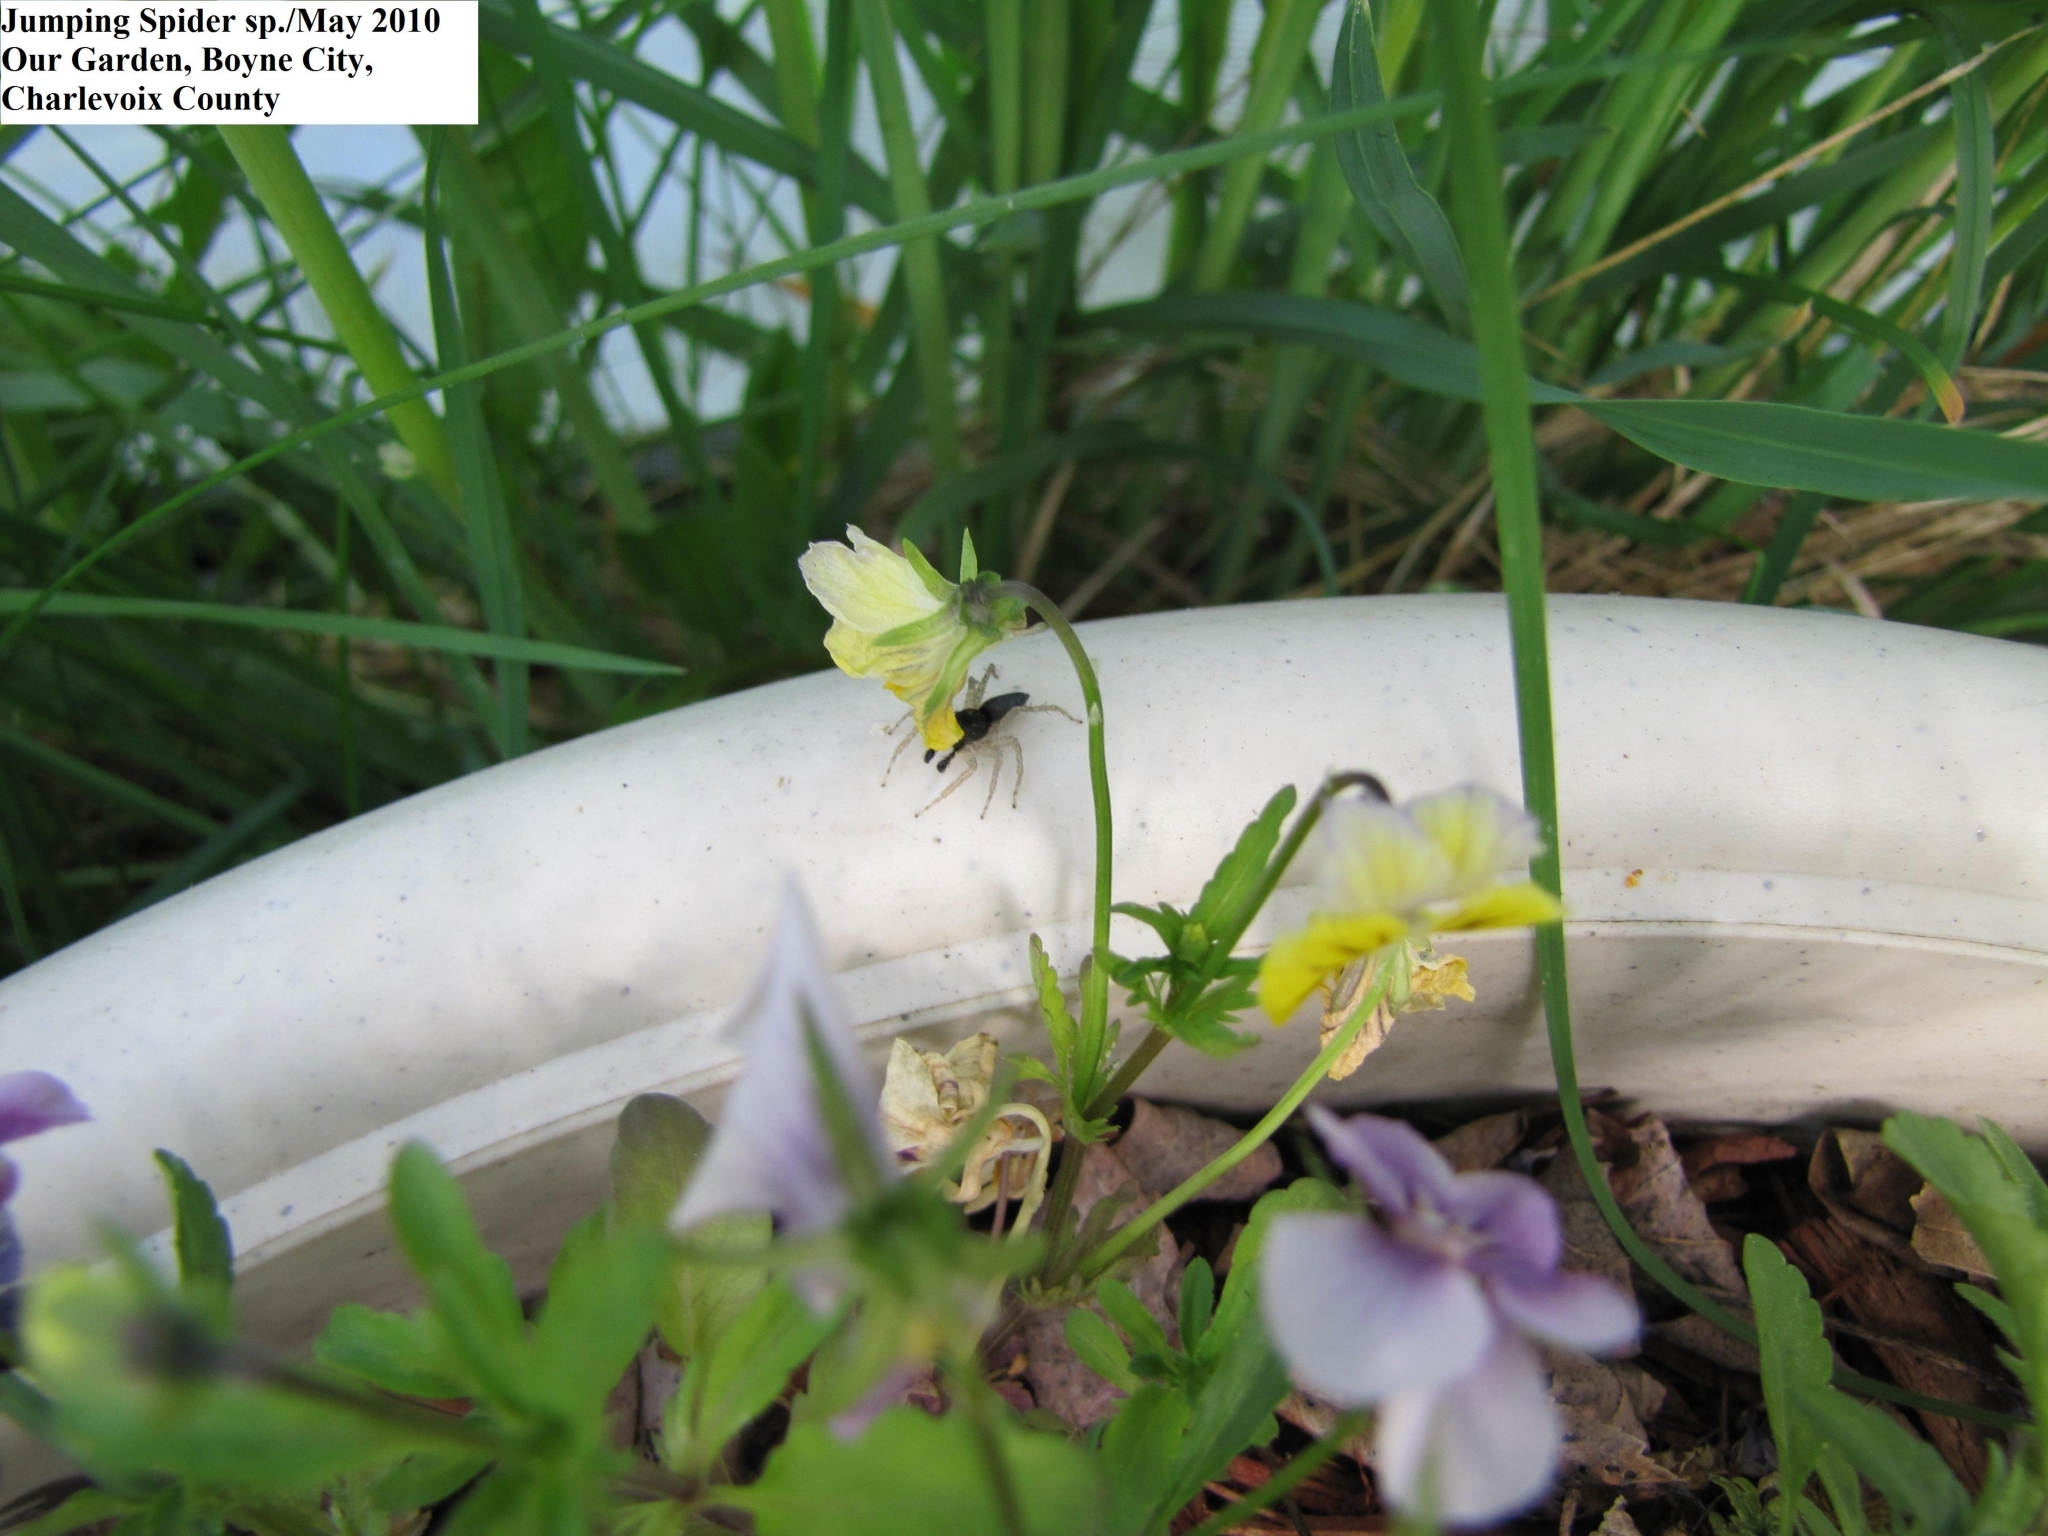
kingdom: Animalia
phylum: Arthropoda
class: Arachnida
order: Araneae
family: Salticidae
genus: Maevia
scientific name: Maevia inclemens
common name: Dimorphic jumper
